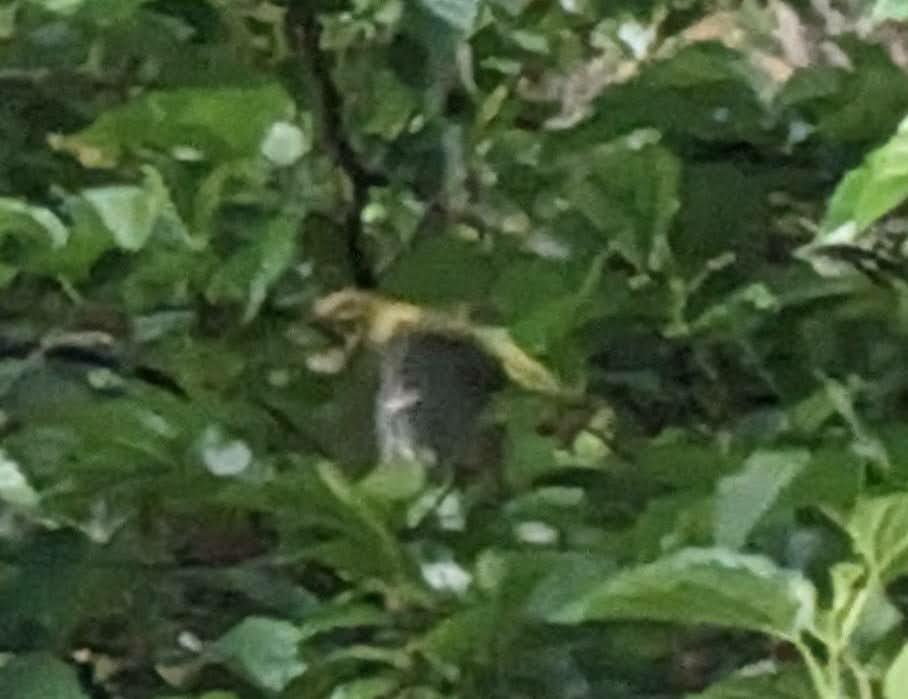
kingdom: Animalia
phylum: Chordata
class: Aves
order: Passeriformes
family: Oriolidae
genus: Oriolus
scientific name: Oriolus oriolus
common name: Eurasian golden oriole
